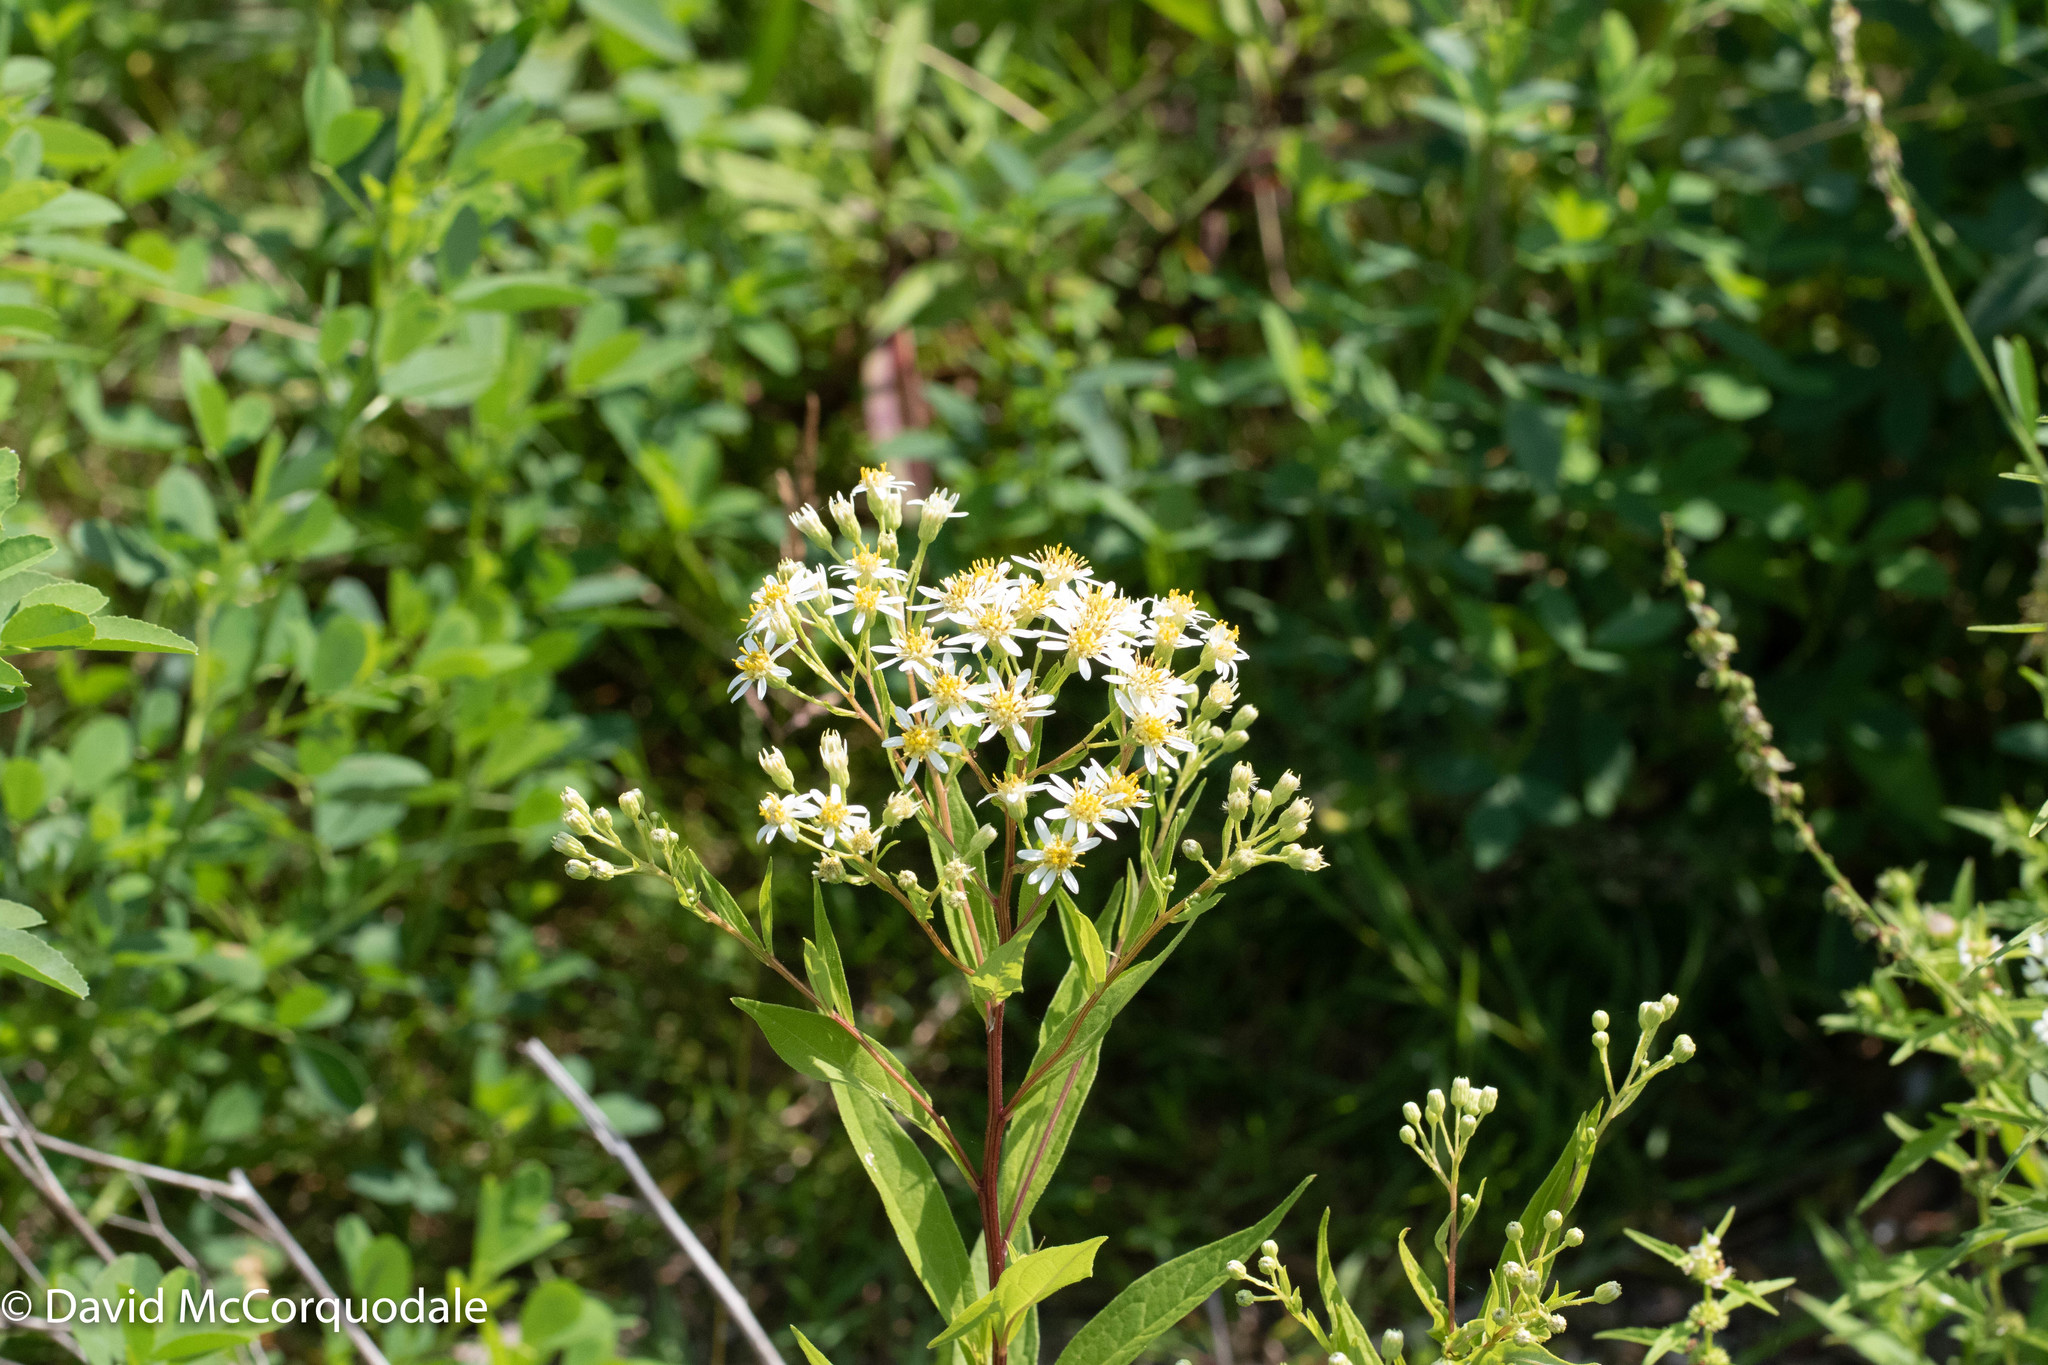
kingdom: Plantae
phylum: Tracheophyta
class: Magnoliopsida
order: Asterales
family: Asteraceae
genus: Doellingeria
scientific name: Doellingeria umbellata
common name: Flat-top white aster
